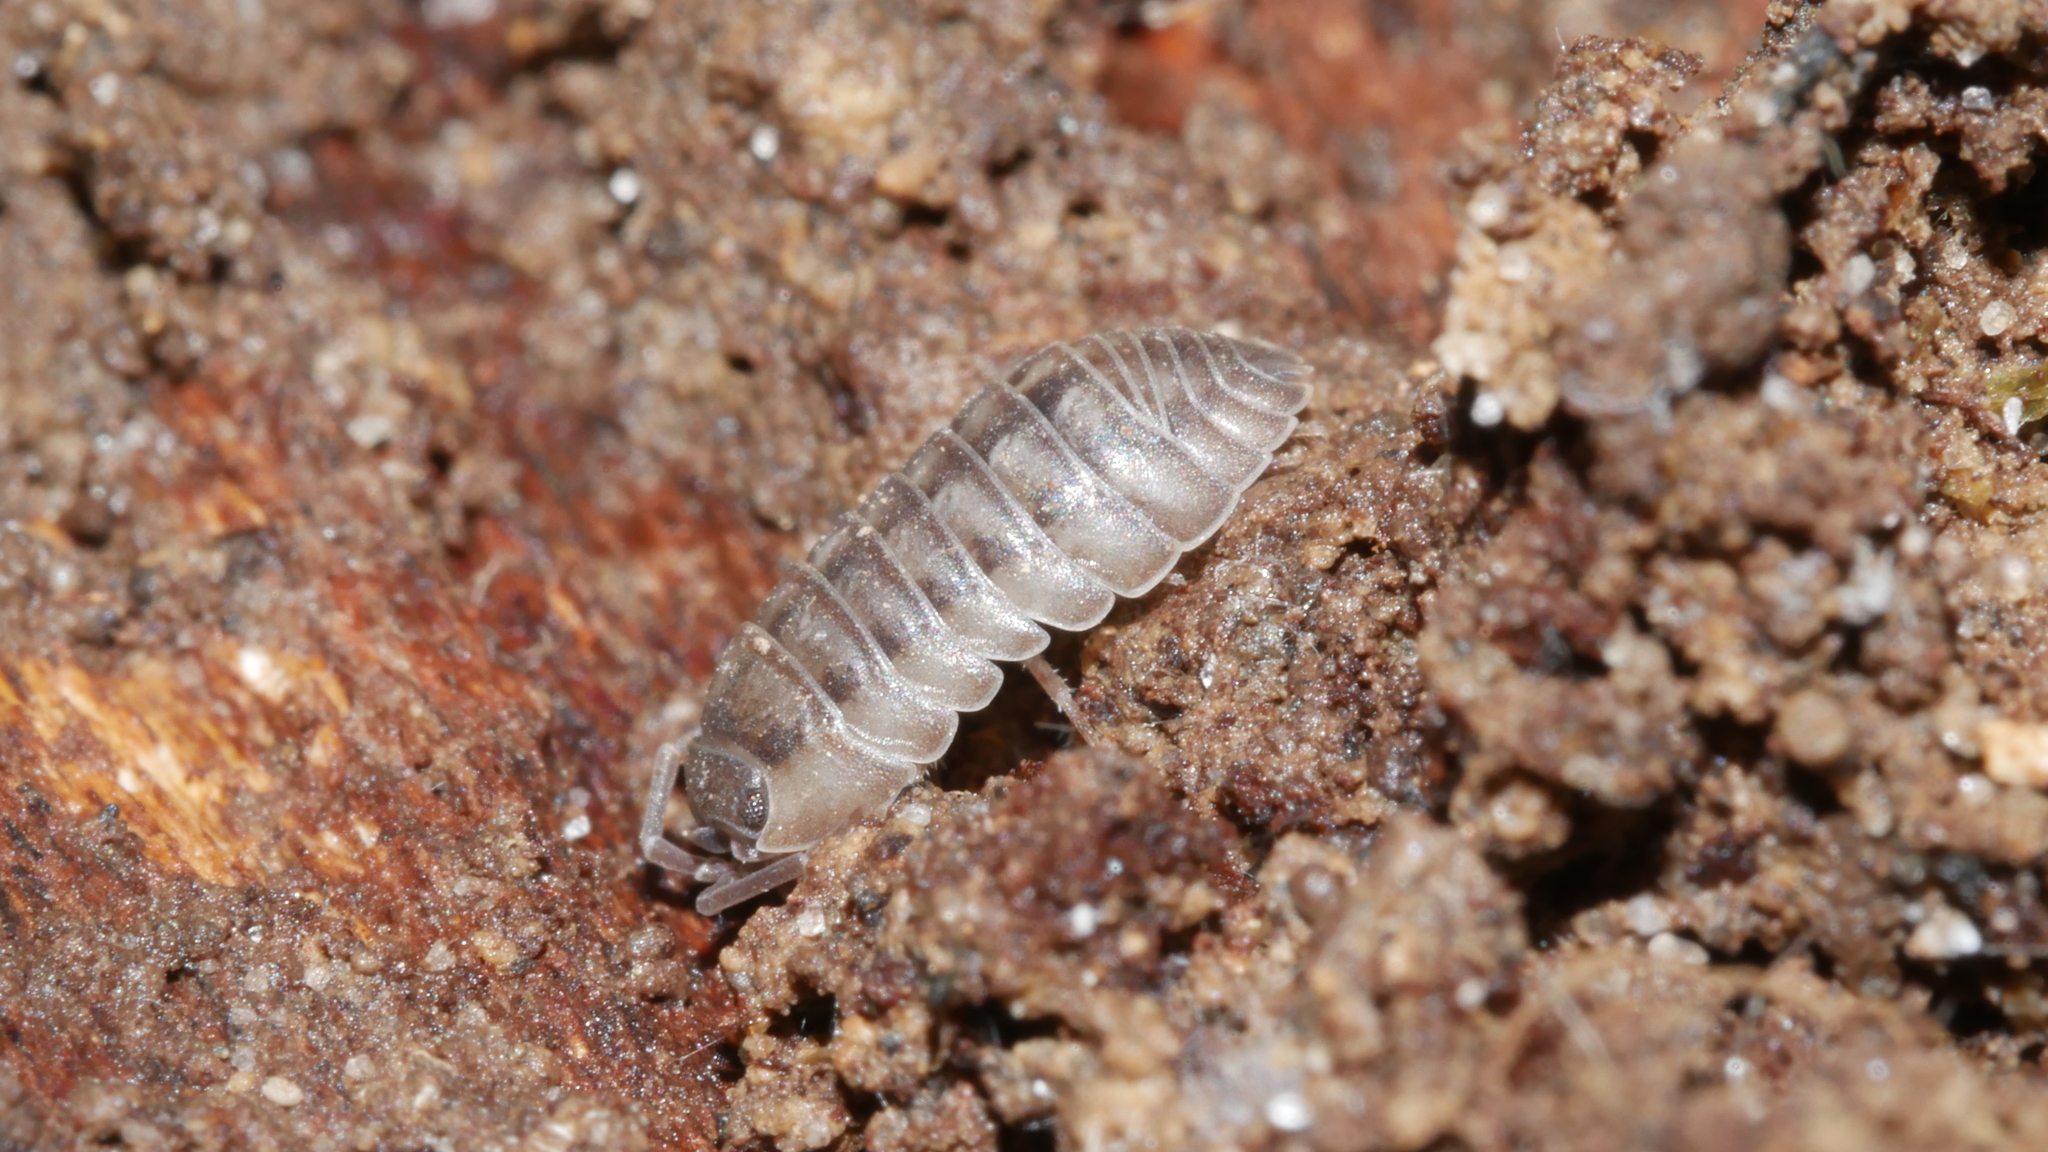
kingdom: Animalia
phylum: Arthropoda
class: Malacostraca
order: Isopoda
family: Armadillidiidae
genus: Armadillidium
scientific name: Armadillidium nasatum
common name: Isopod
